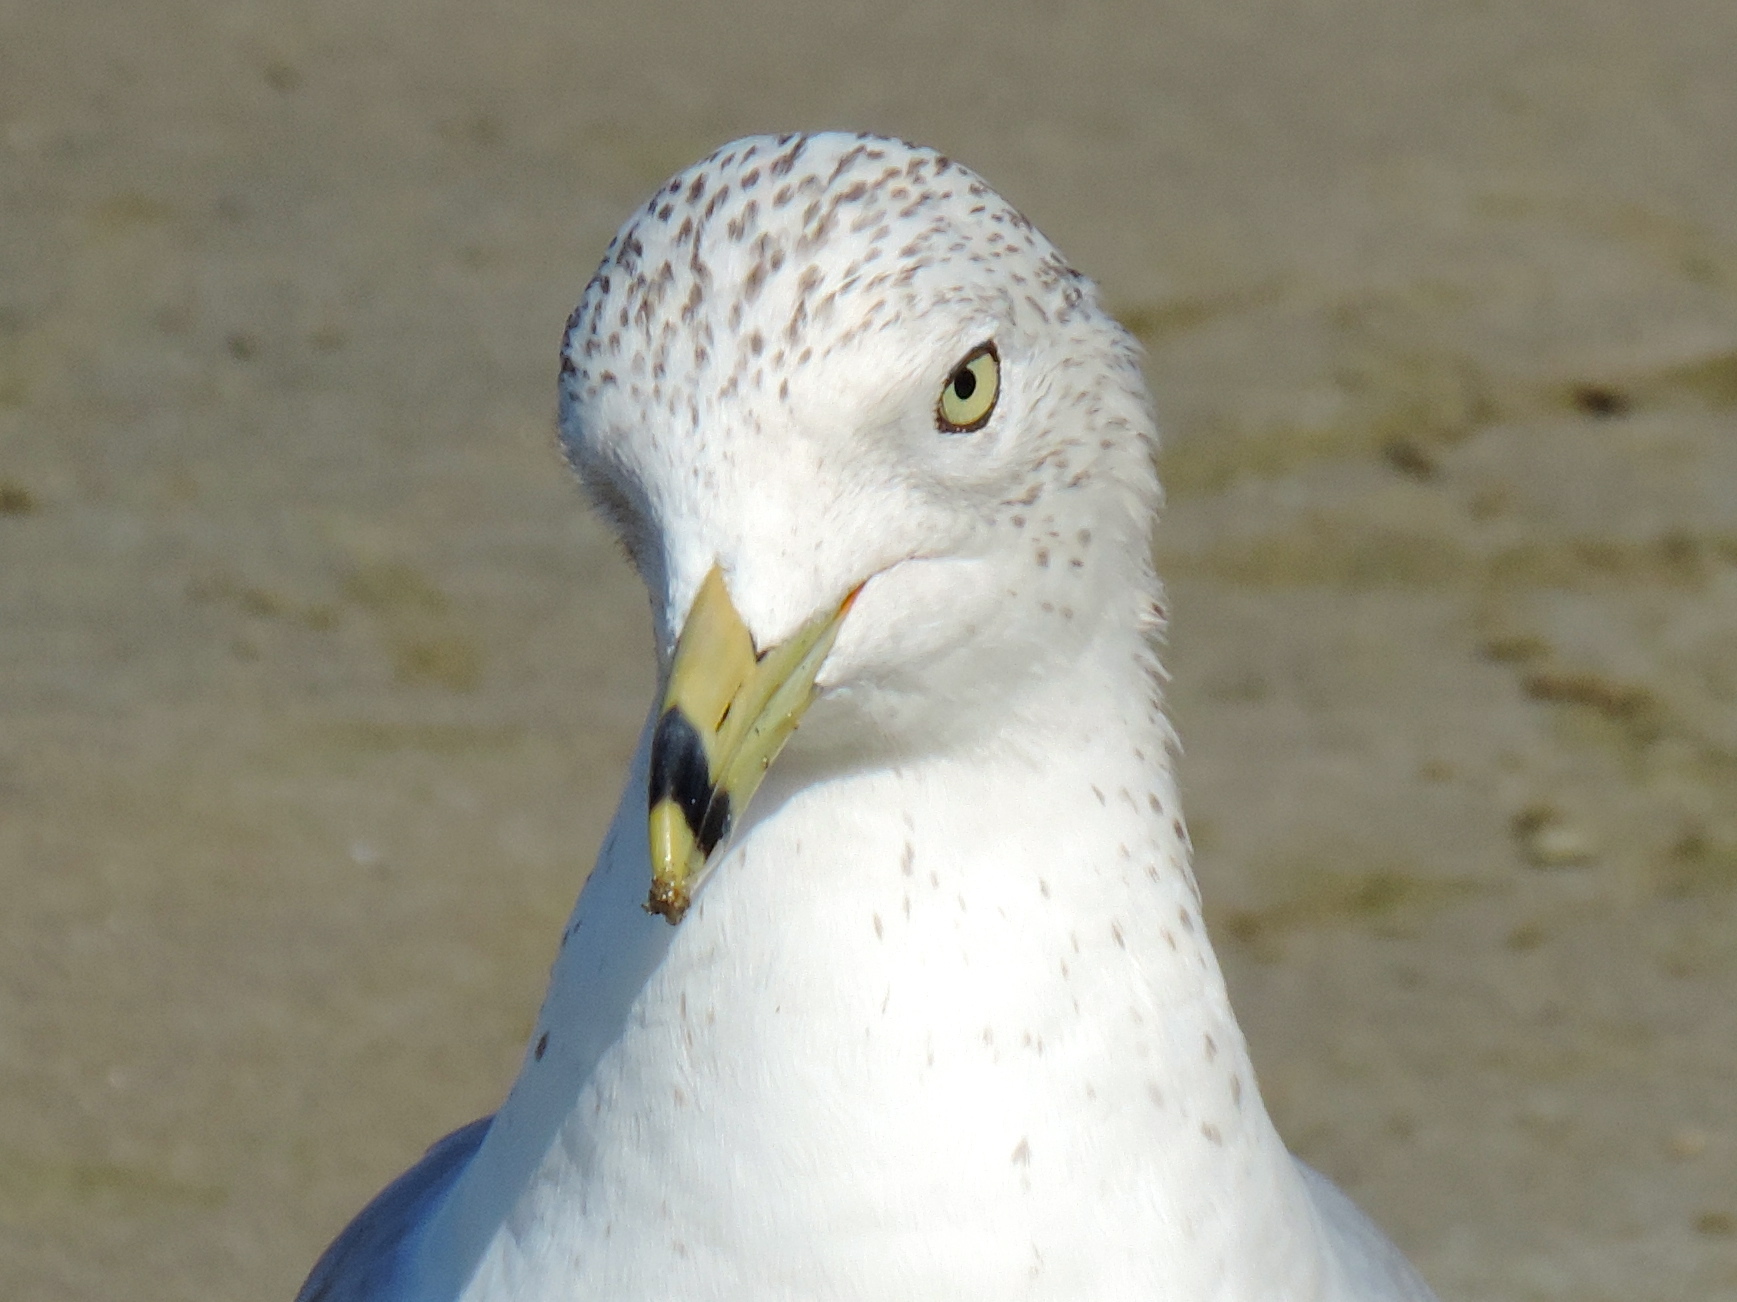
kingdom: Animalia
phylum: Chordata
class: Aves
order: Charadriiformes
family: Laridae
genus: Larus
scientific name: Larus delawarensis
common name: Ring-billed gull
